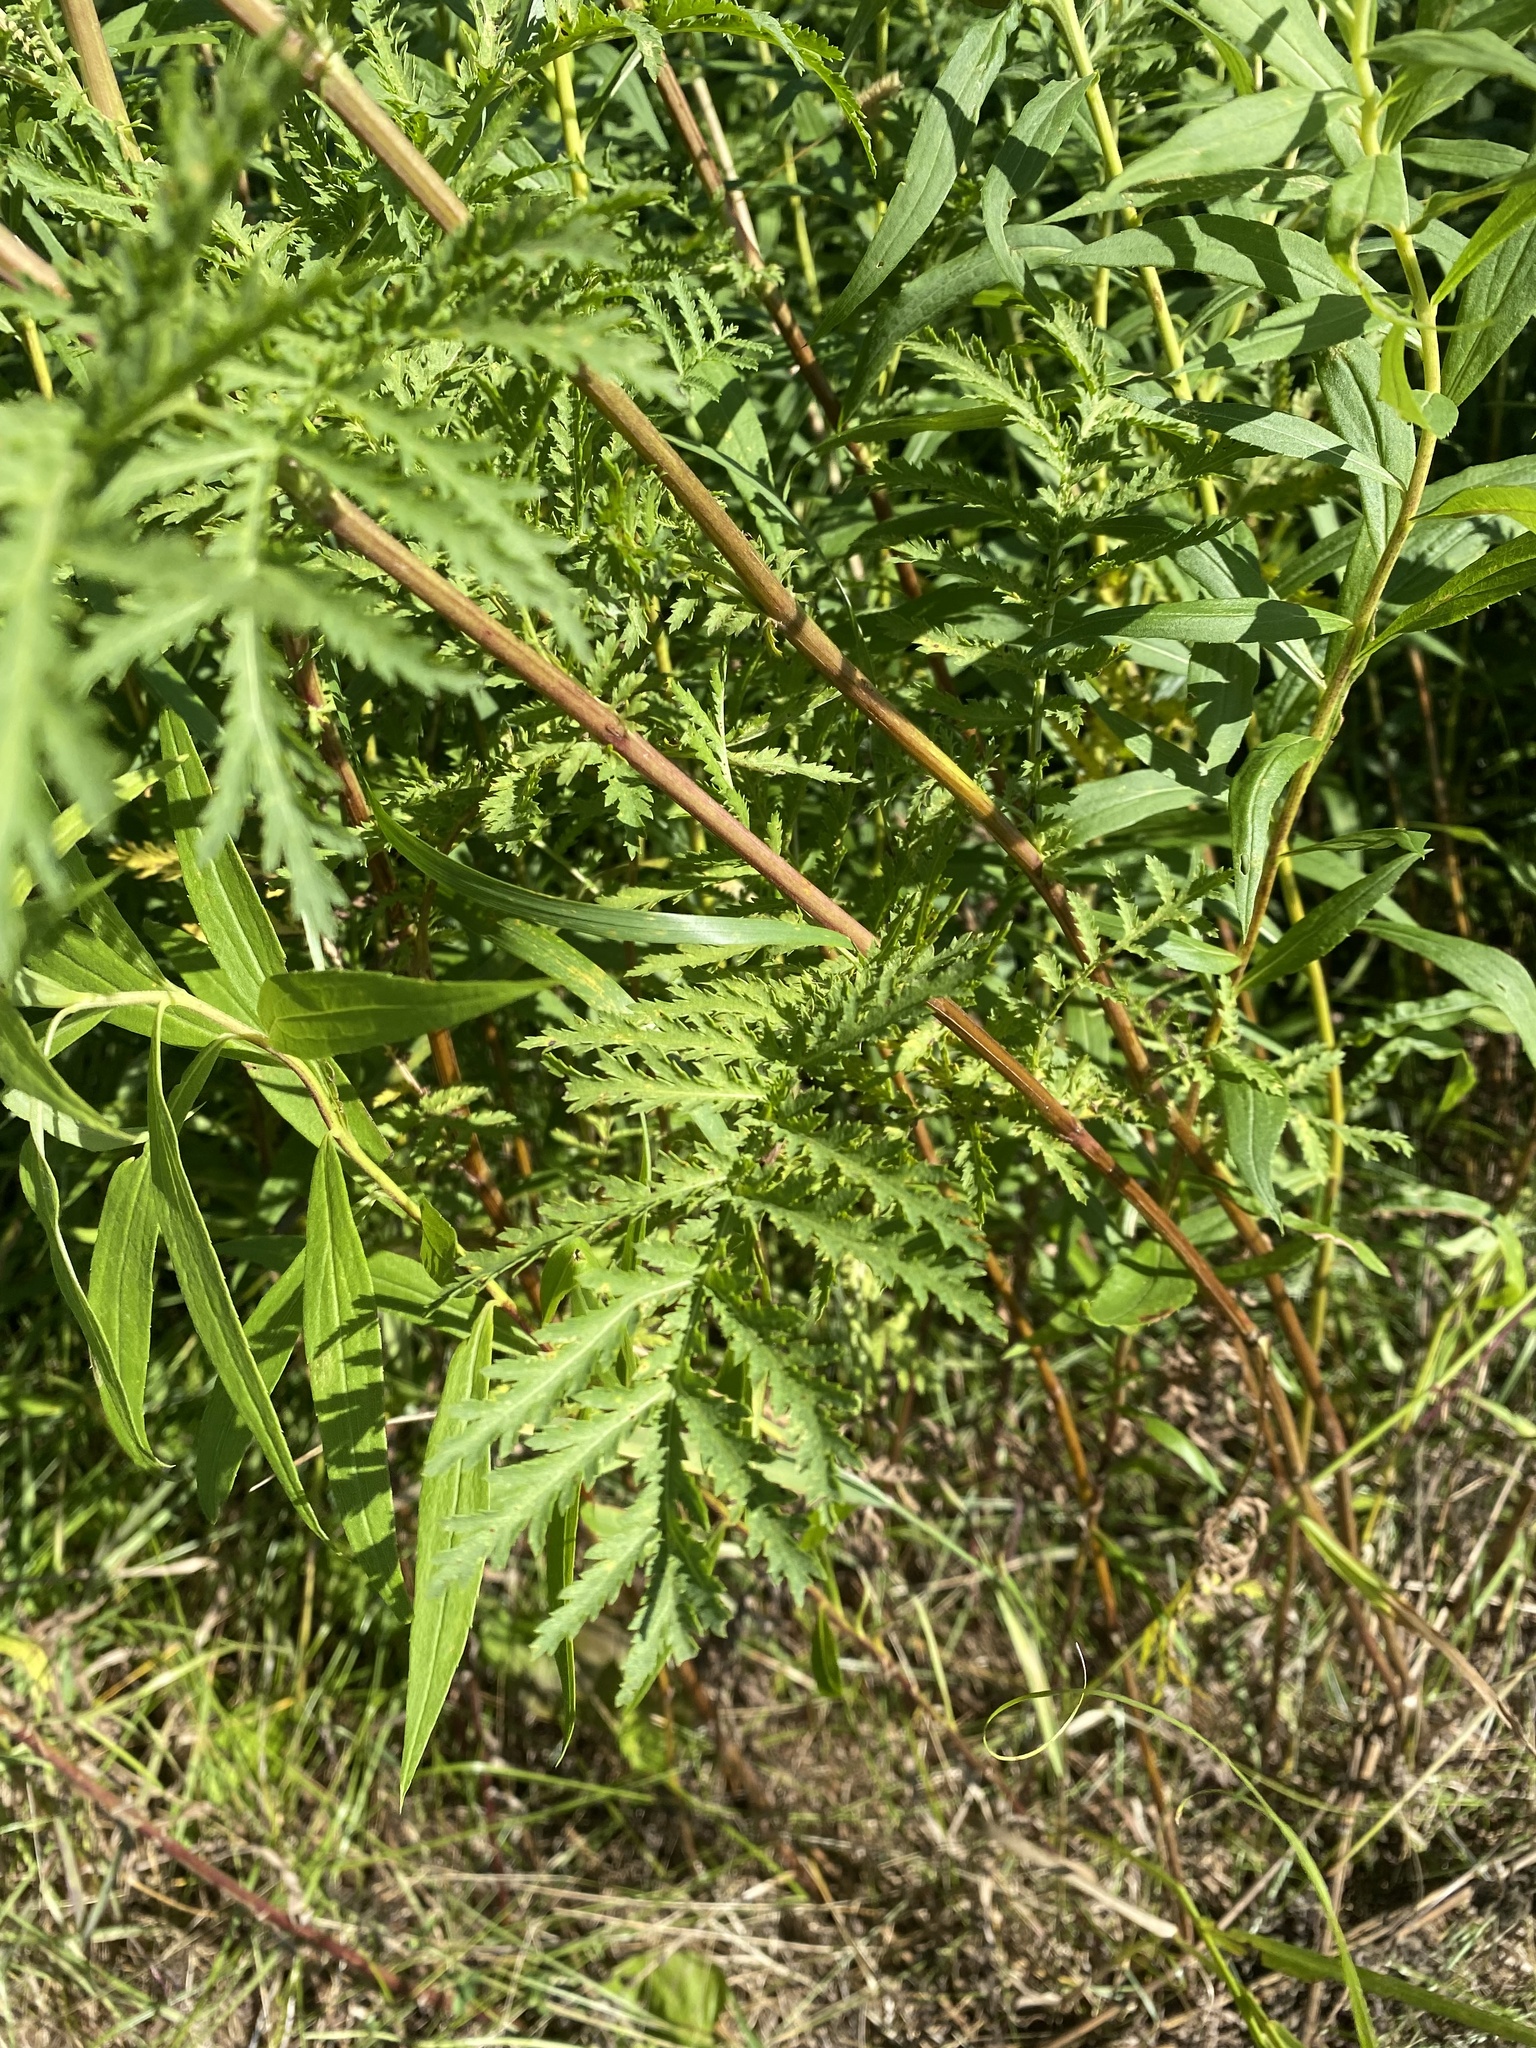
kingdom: Plantae
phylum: Tracheophyta
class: Magnoliopsida
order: Asterales
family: Asteraceae
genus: Tanacetum
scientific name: Tanacetum vulgare
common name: Common tansy
